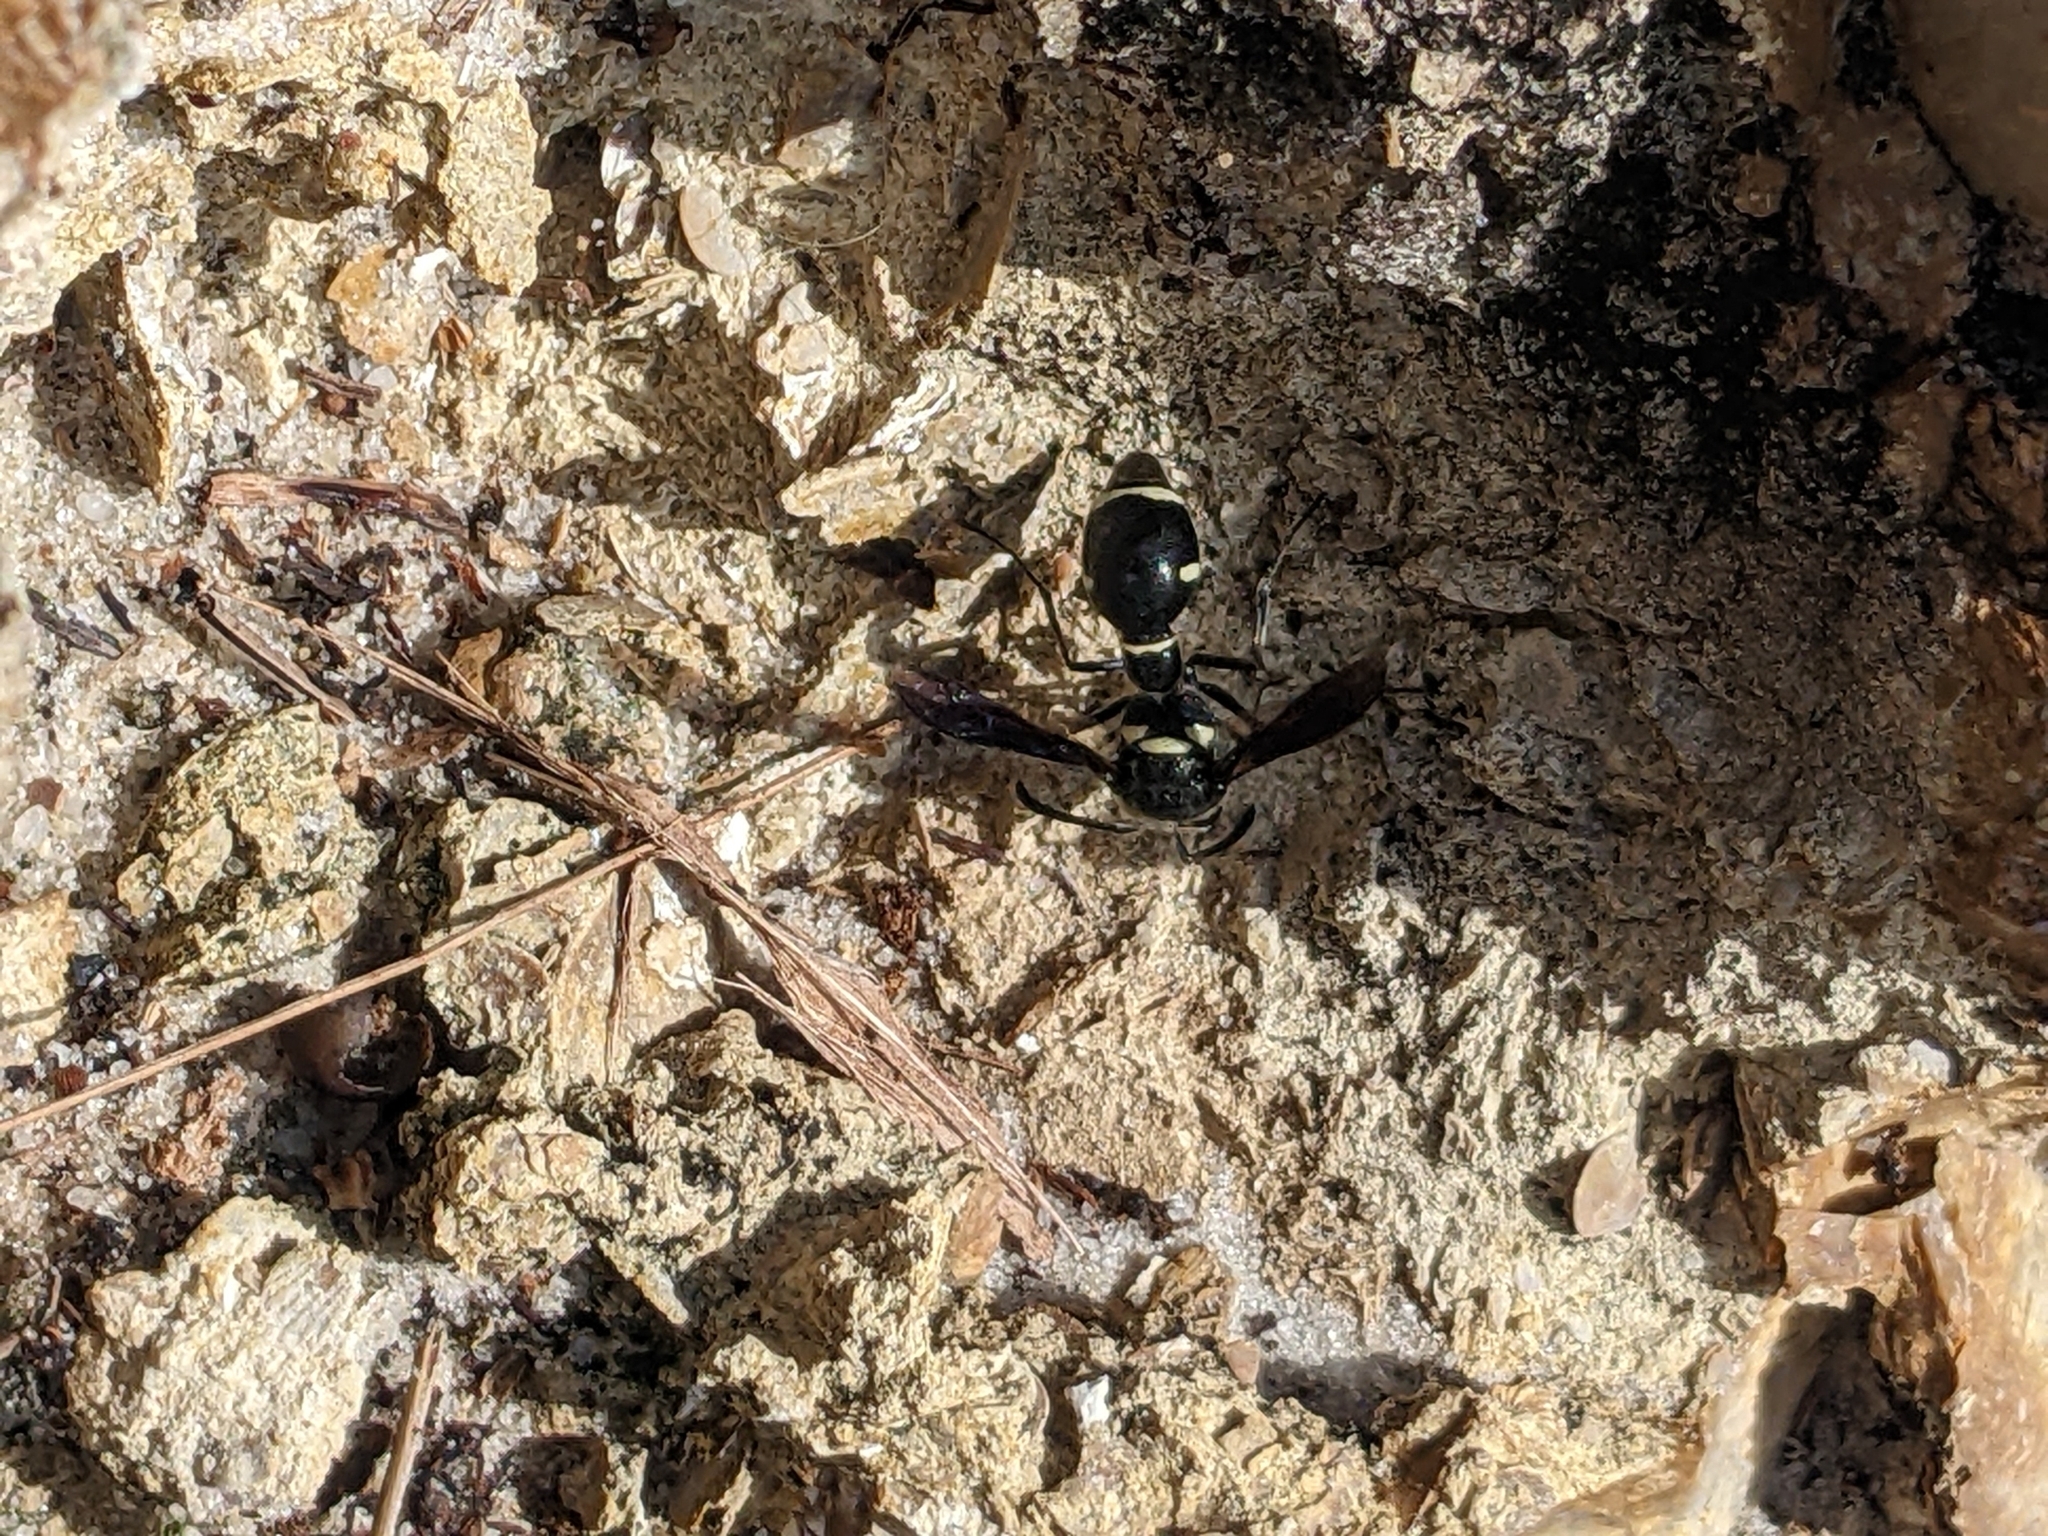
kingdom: Animalia
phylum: Arthropoda
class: Insecta
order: Hymenoptera
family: Vespidae
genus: Eumenes
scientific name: Eumenes fraternus
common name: Fraternal potter wasp
